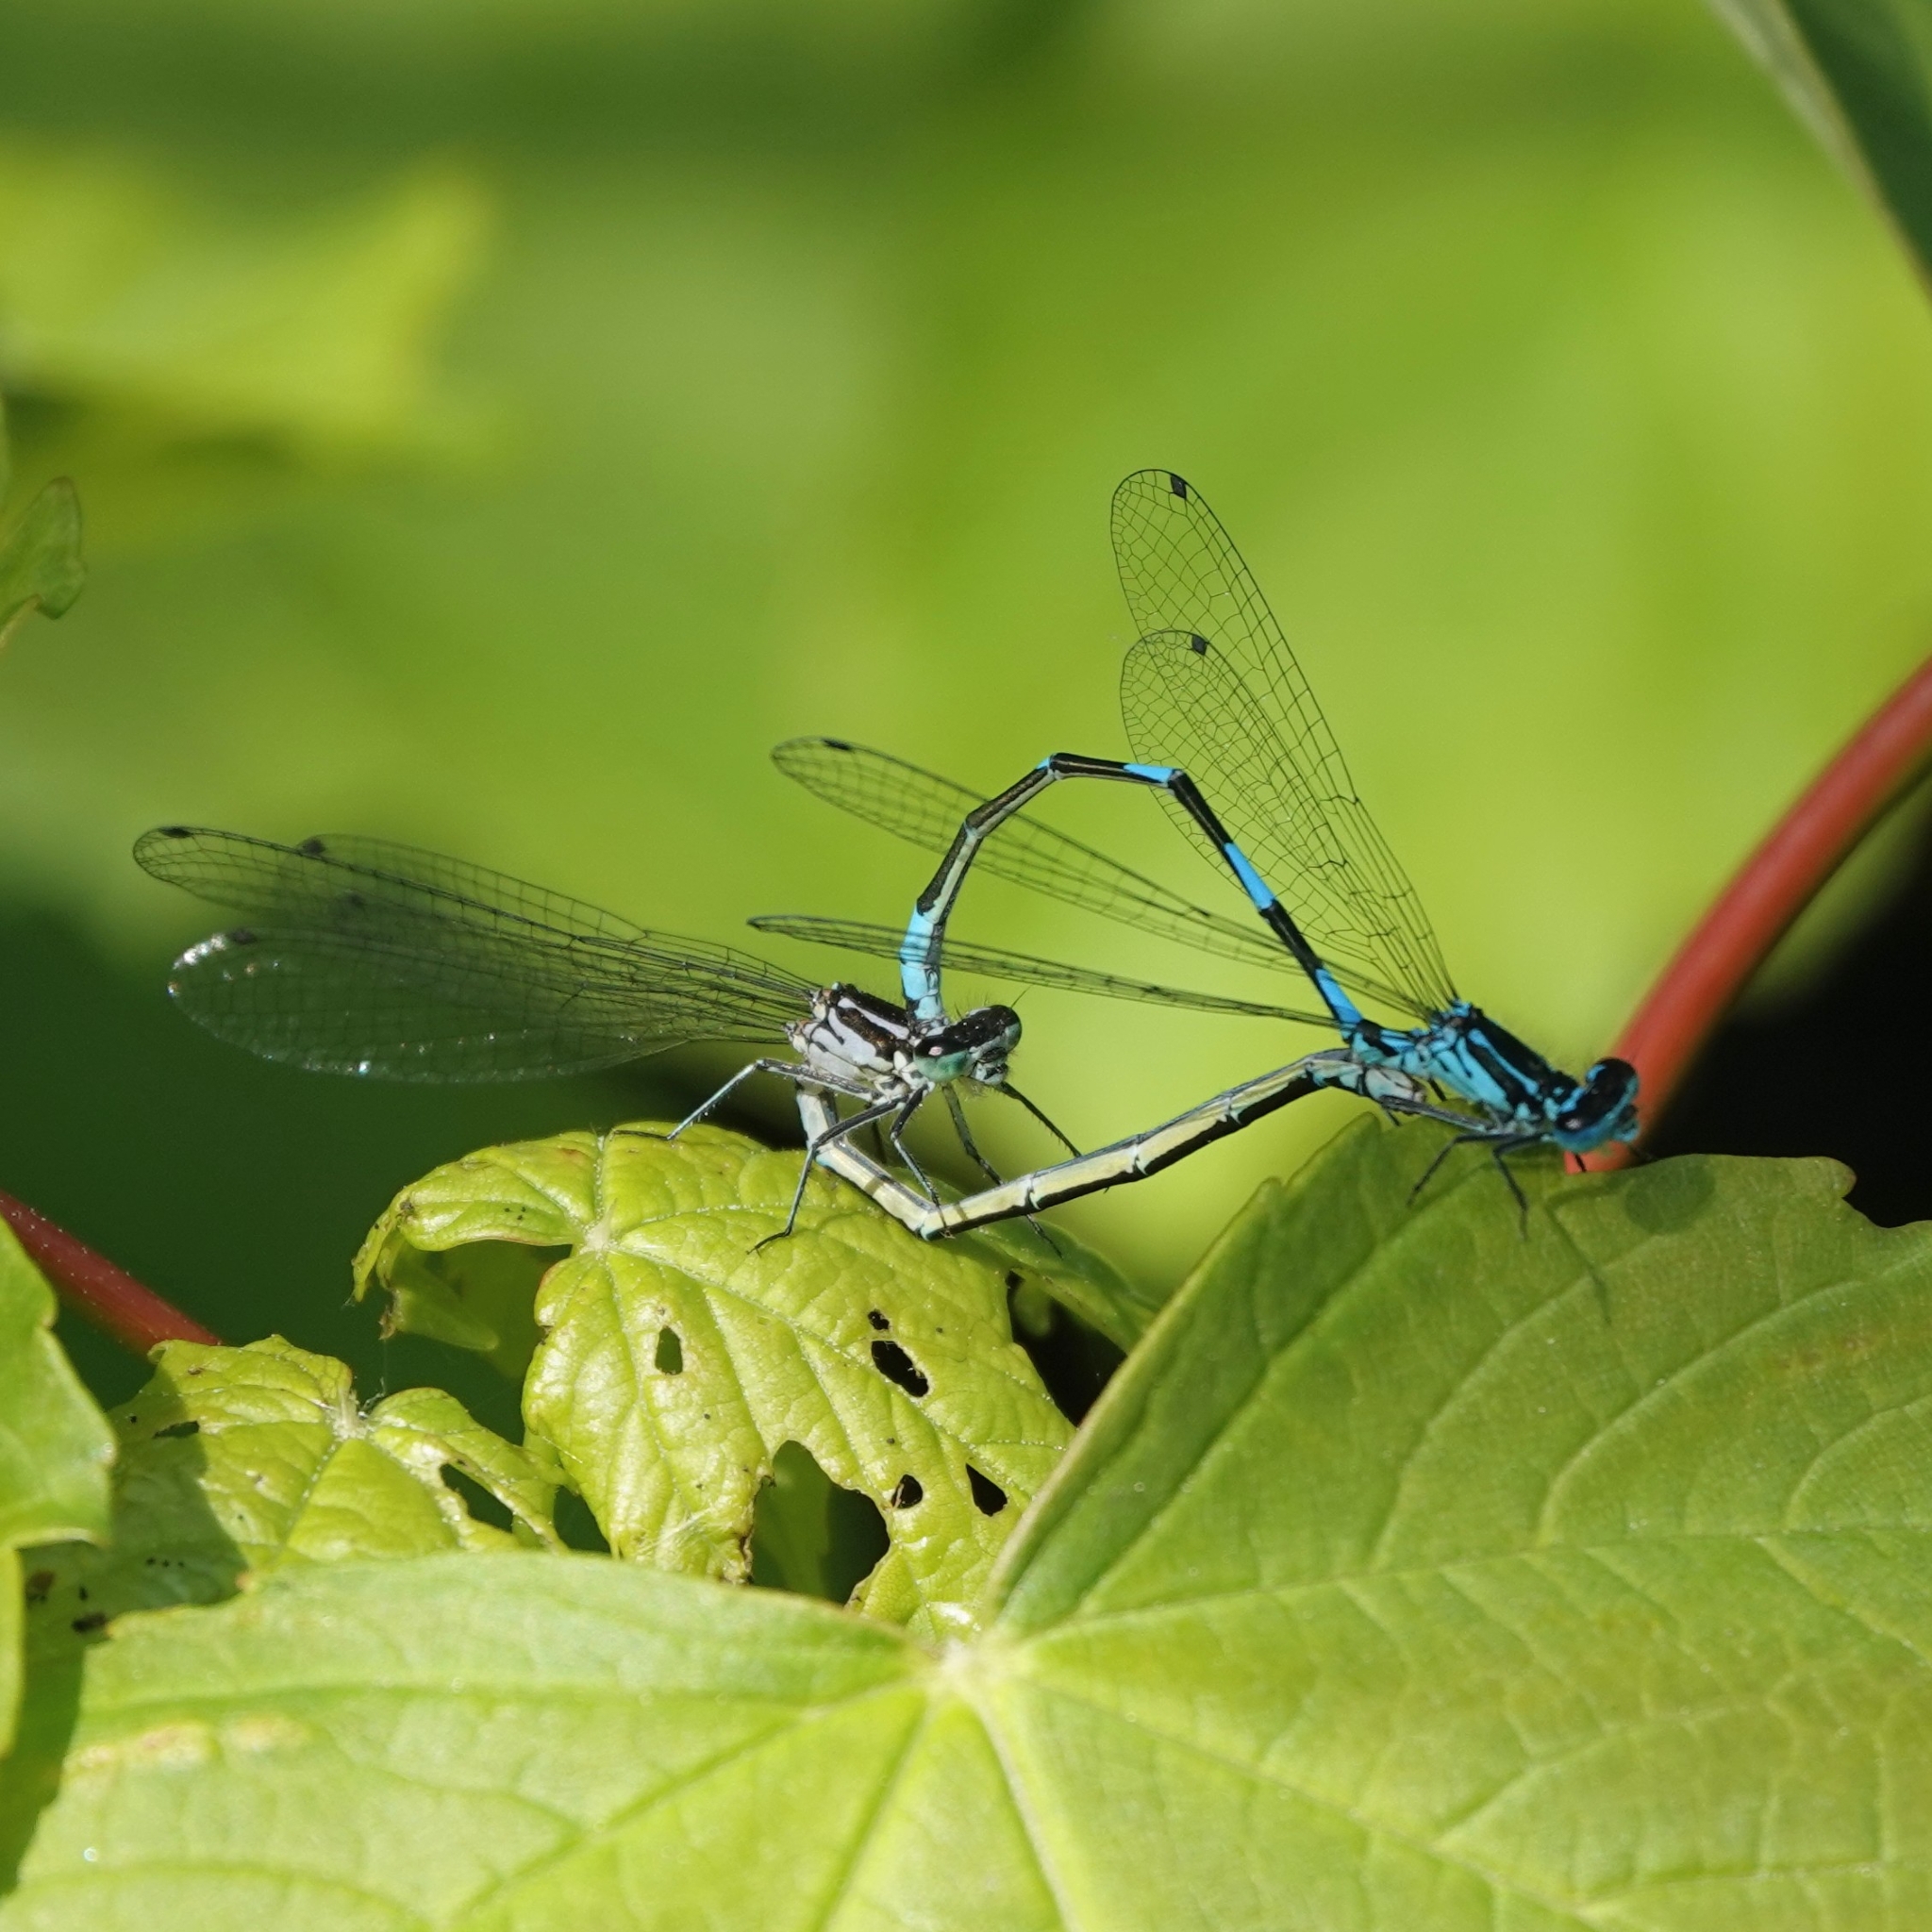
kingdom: Animalia
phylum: Arthropoda
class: Insecta
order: Odonata
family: Coenagrionidae
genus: Coenagrion
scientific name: Coenagrion pulchellum
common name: Variable bluet
